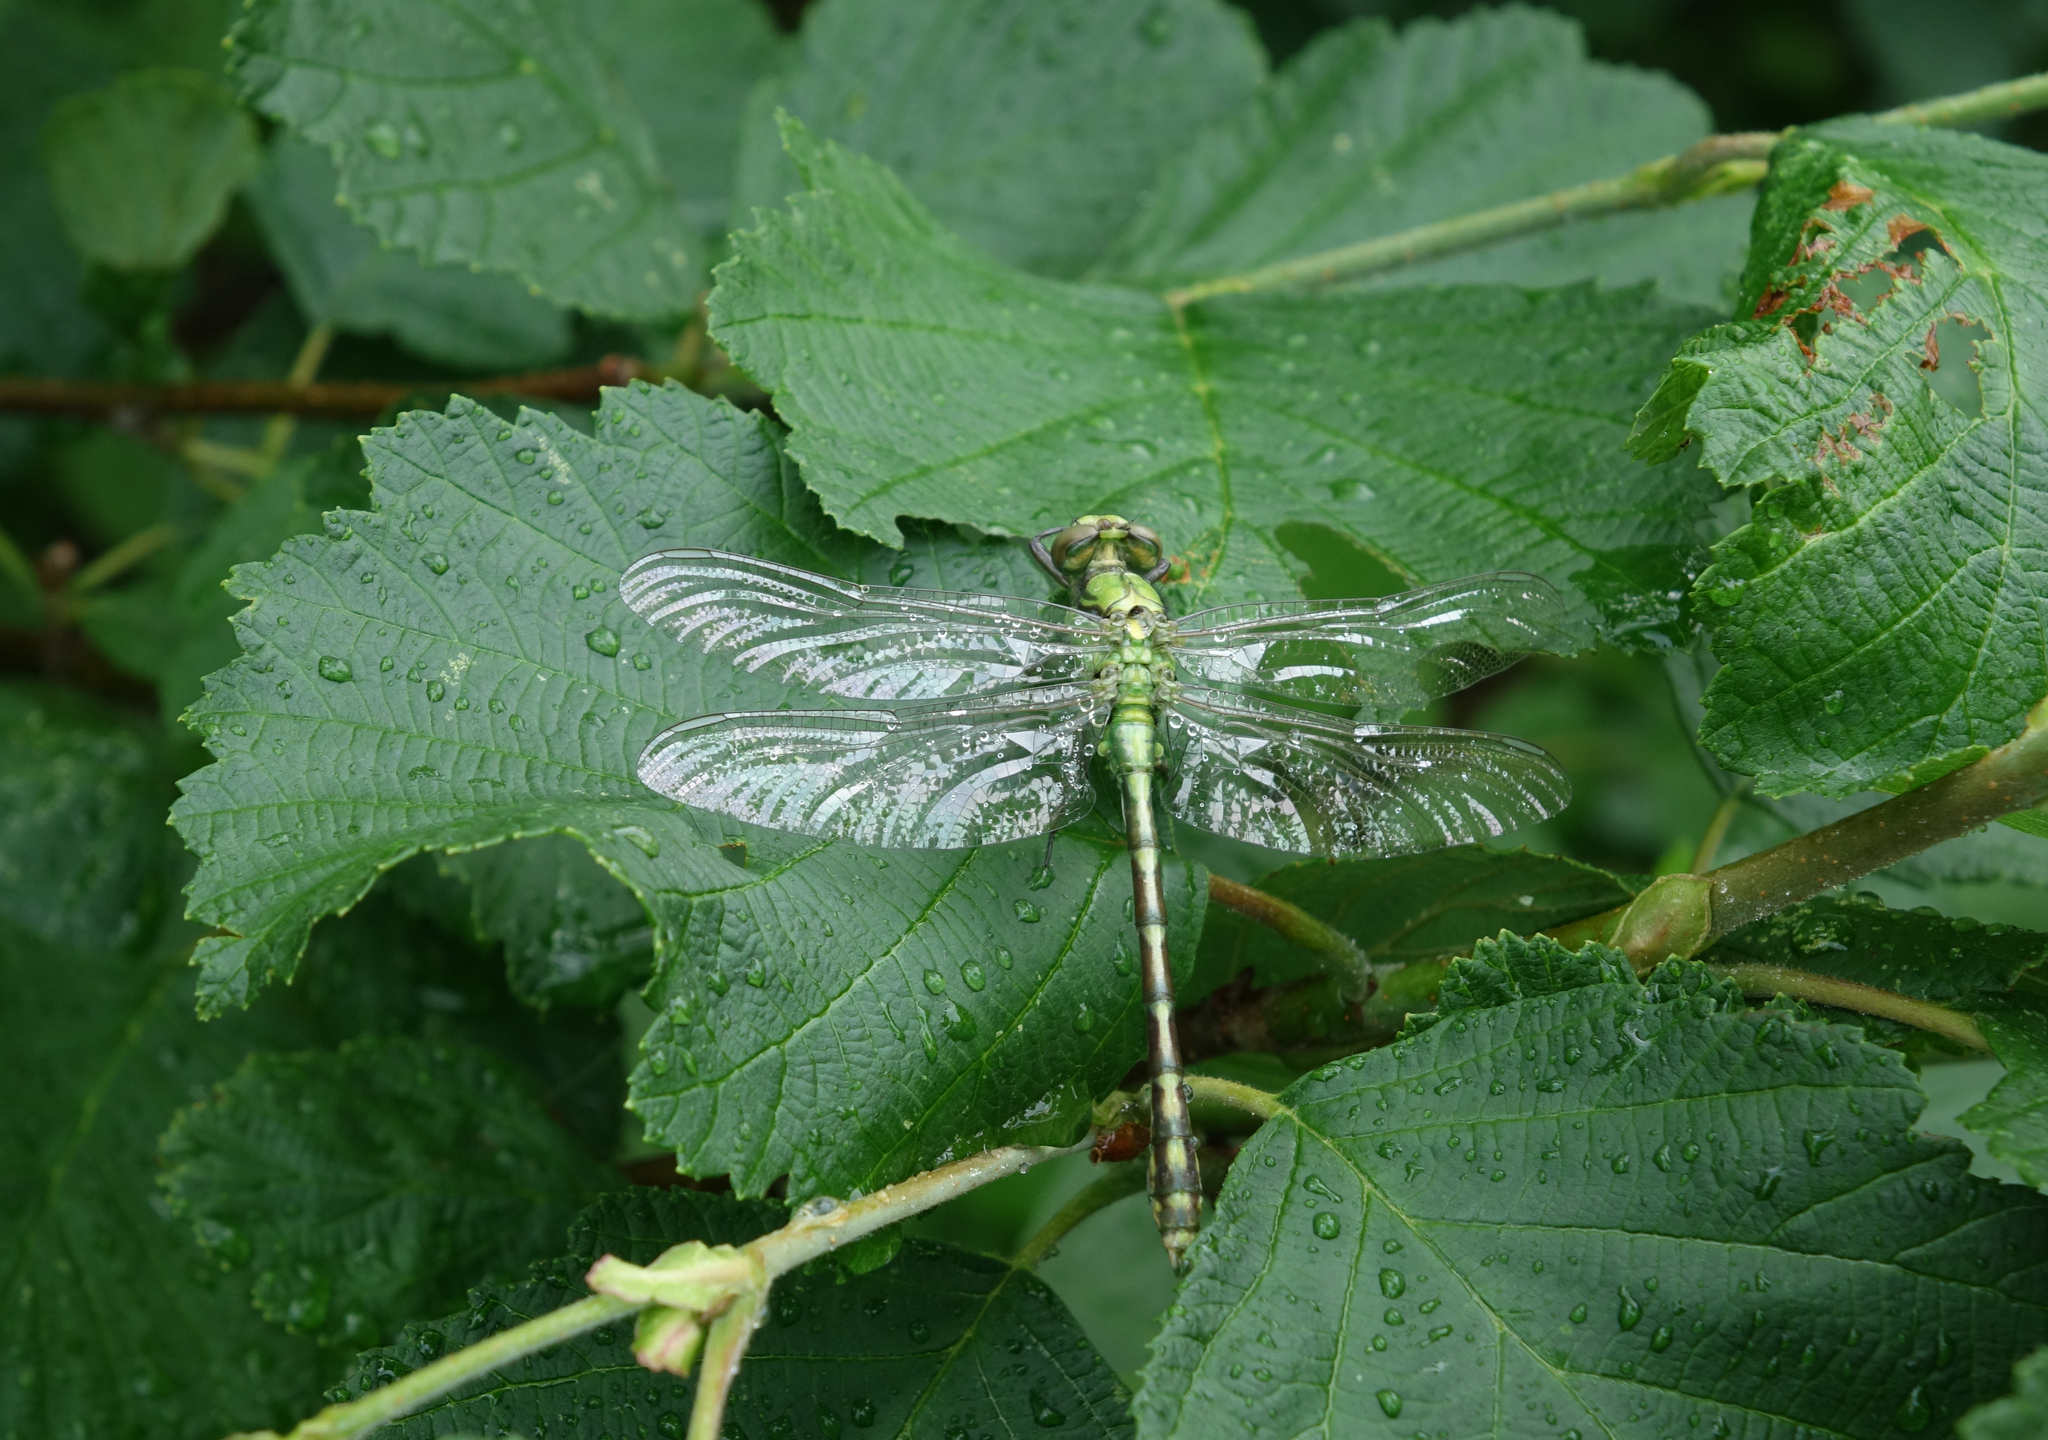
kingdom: Animalia
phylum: Arthropoda
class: Insecta
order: Odonata
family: Gomphidae
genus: Ophiogomphus
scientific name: Ophiogomphus obscurus
